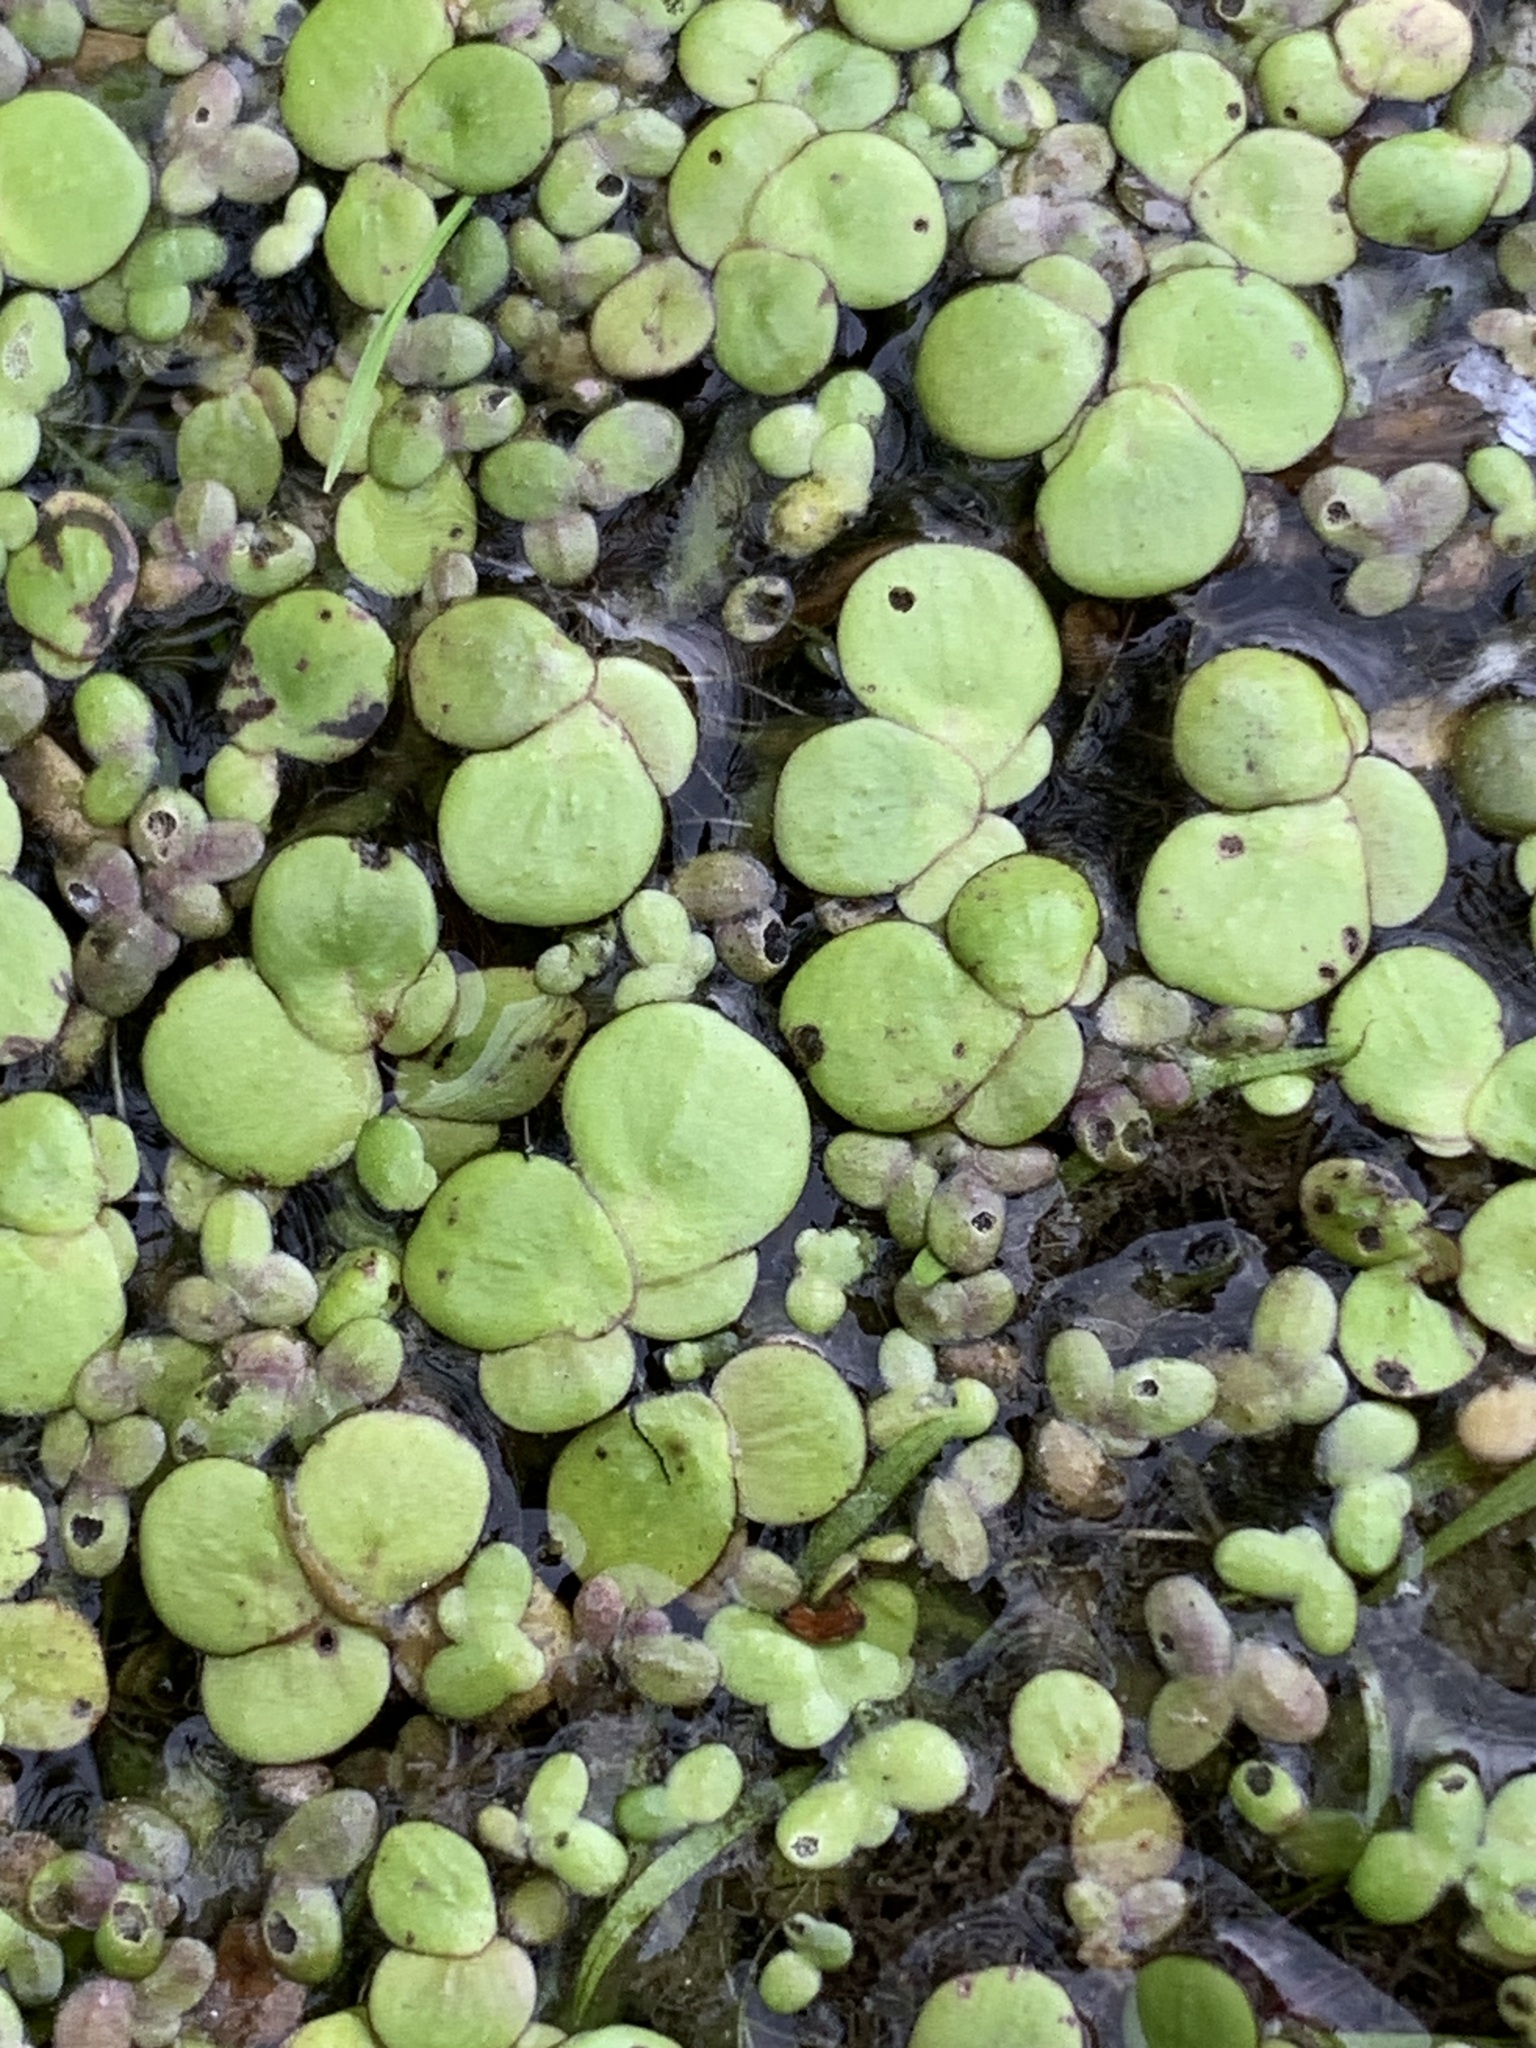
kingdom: Plantae
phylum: Tracheophyta
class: Liliopsida
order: Alismatales
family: Araceae
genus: Spirodela
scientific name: Spirodela polyrhiza
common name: Great duckweed
